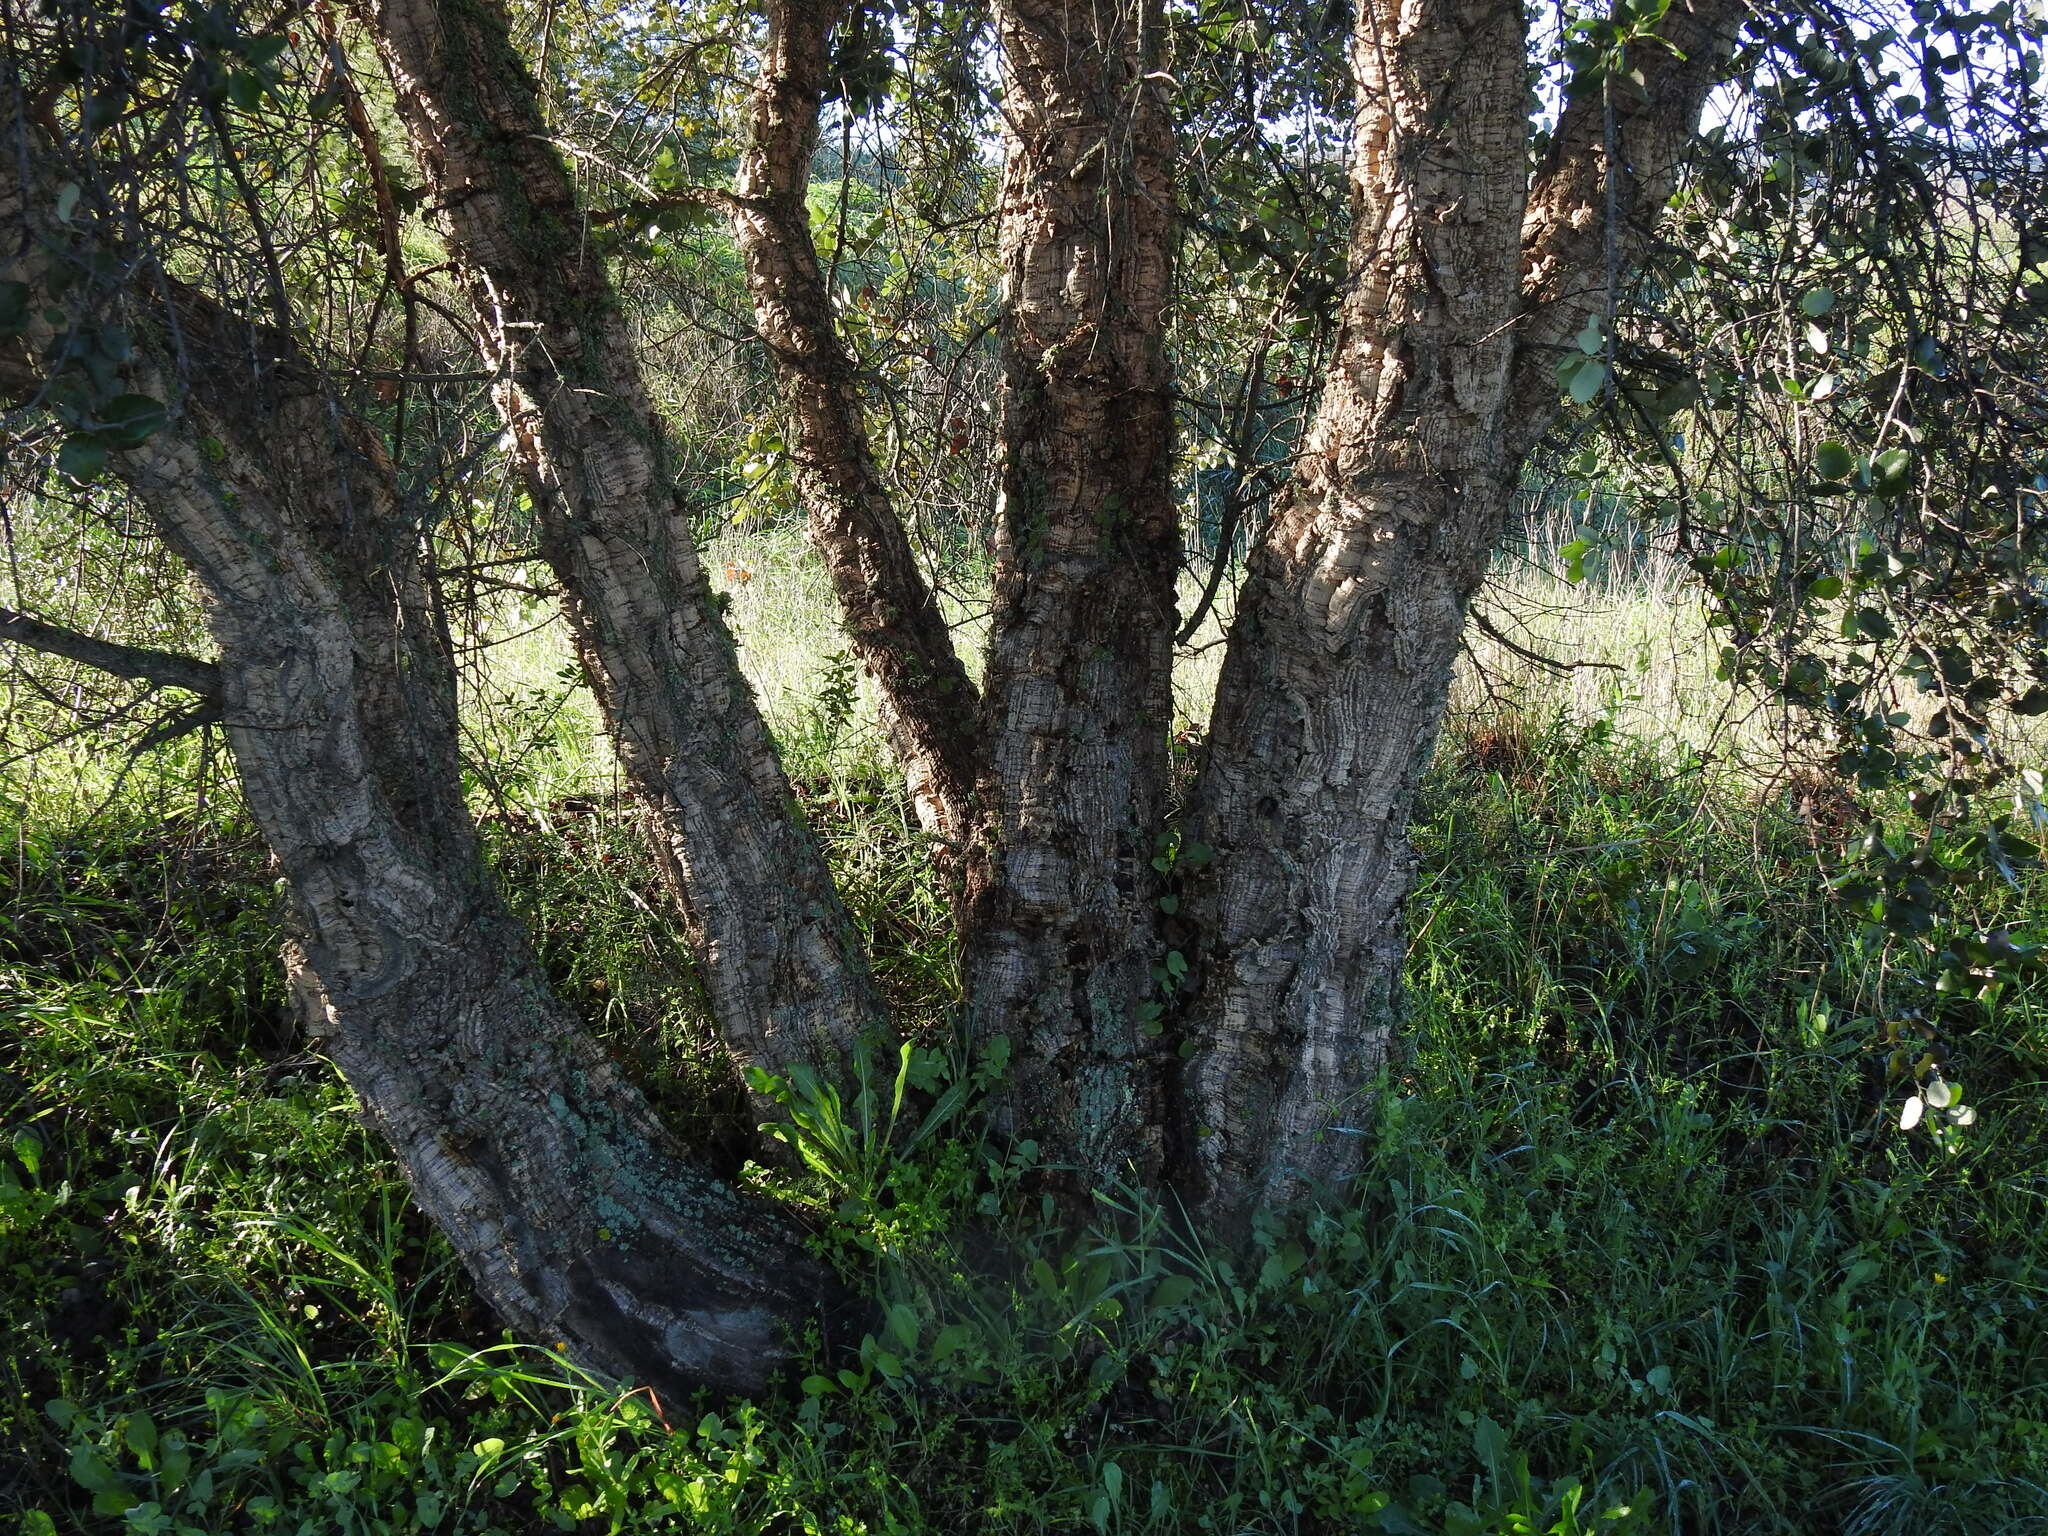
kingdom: Plantae
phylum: Tracheophyta
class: Magnoliopsida
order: Fagales
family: Fagaceae
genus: Quercus
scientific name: Quercus suber
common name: Cork oak
